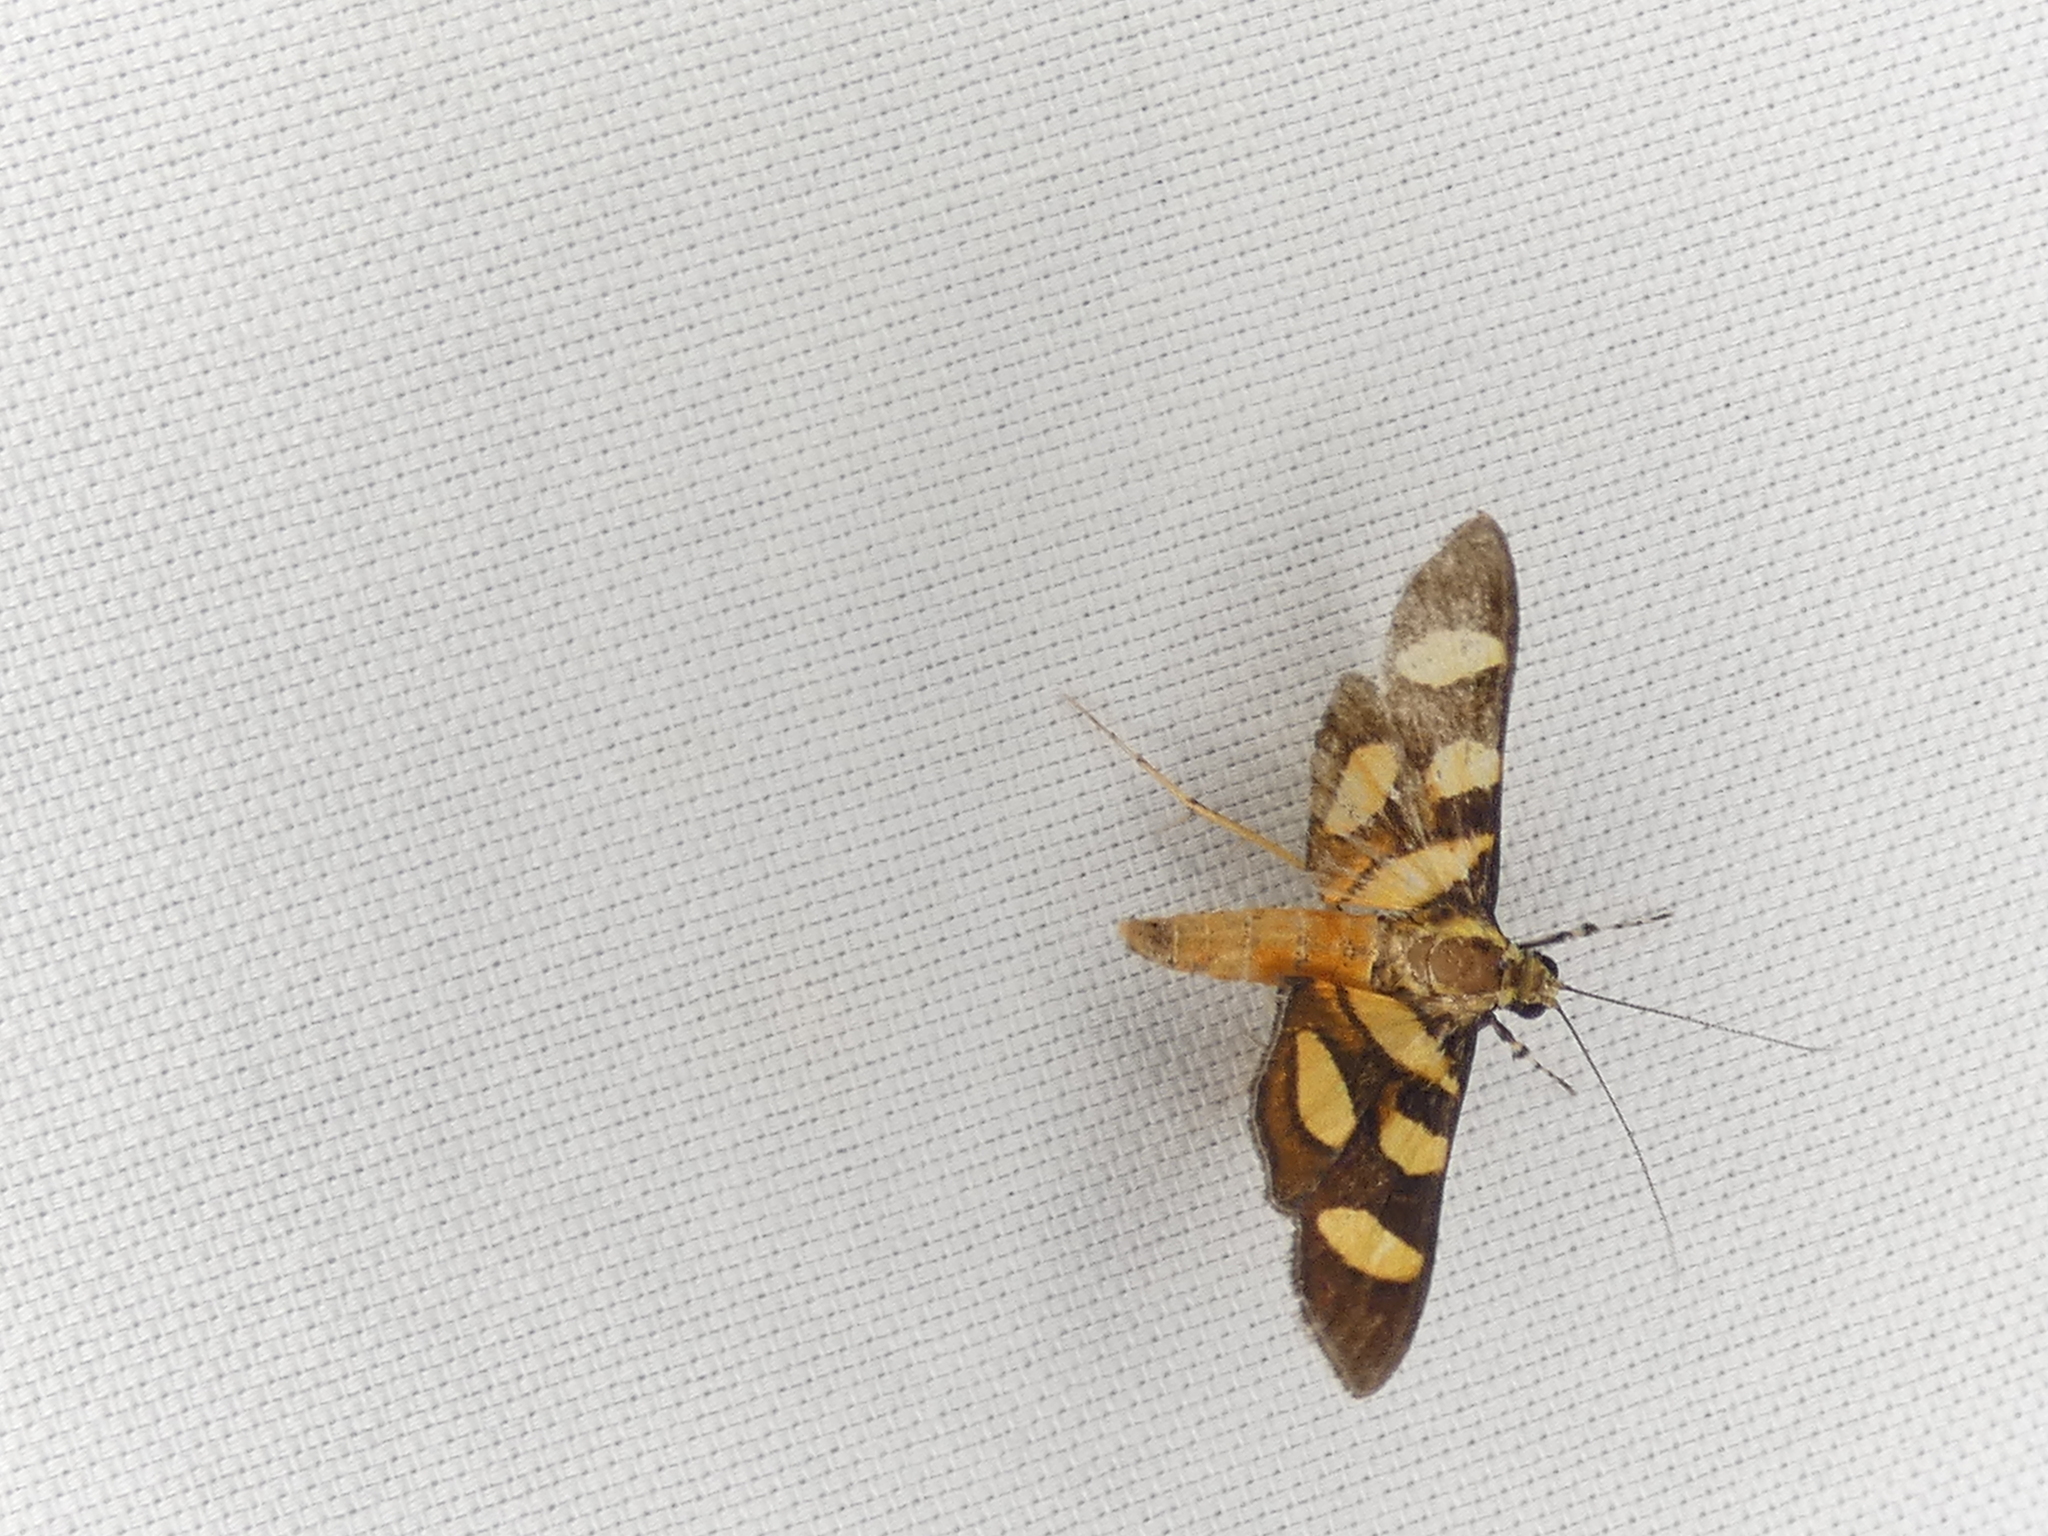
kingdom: Animalia
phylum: Arthropoda
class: Insecta
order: Lepidoptera
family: Crambidae
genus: Syngamia
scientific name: Syngamia florella
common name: Orange-spotted flower moth
